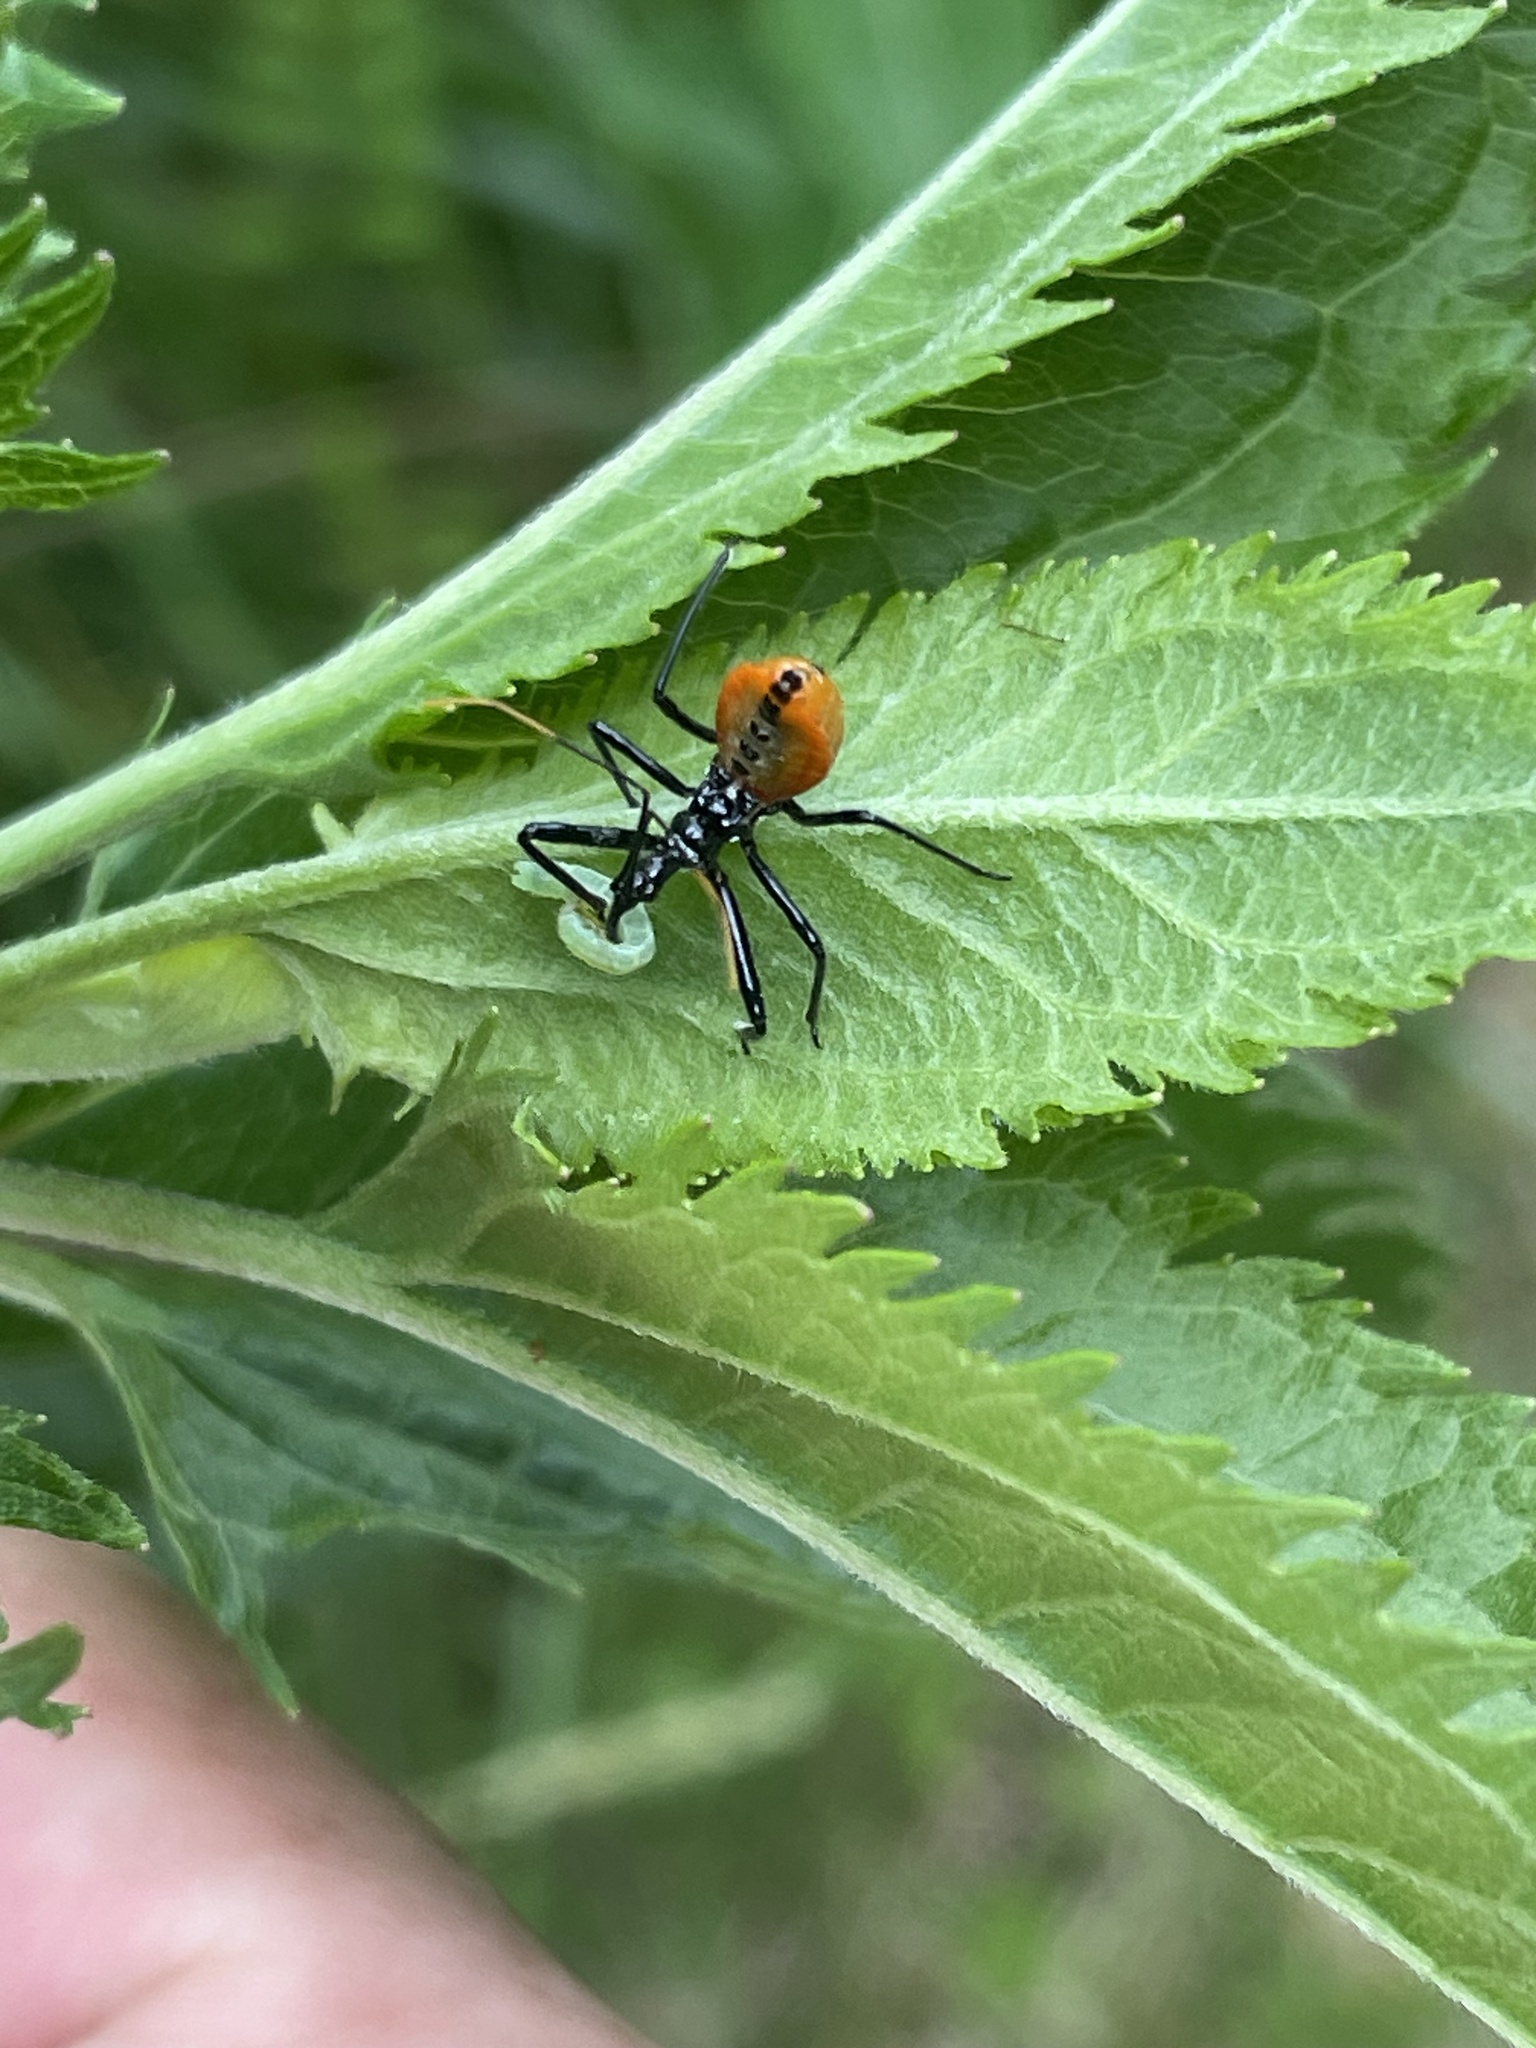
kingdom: Animalia
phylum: Arthropoda
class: Insecta
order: Hemiptera
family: Reduviidae
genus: Arilus
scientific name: Arilus cristatus
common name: North american wheel bug
